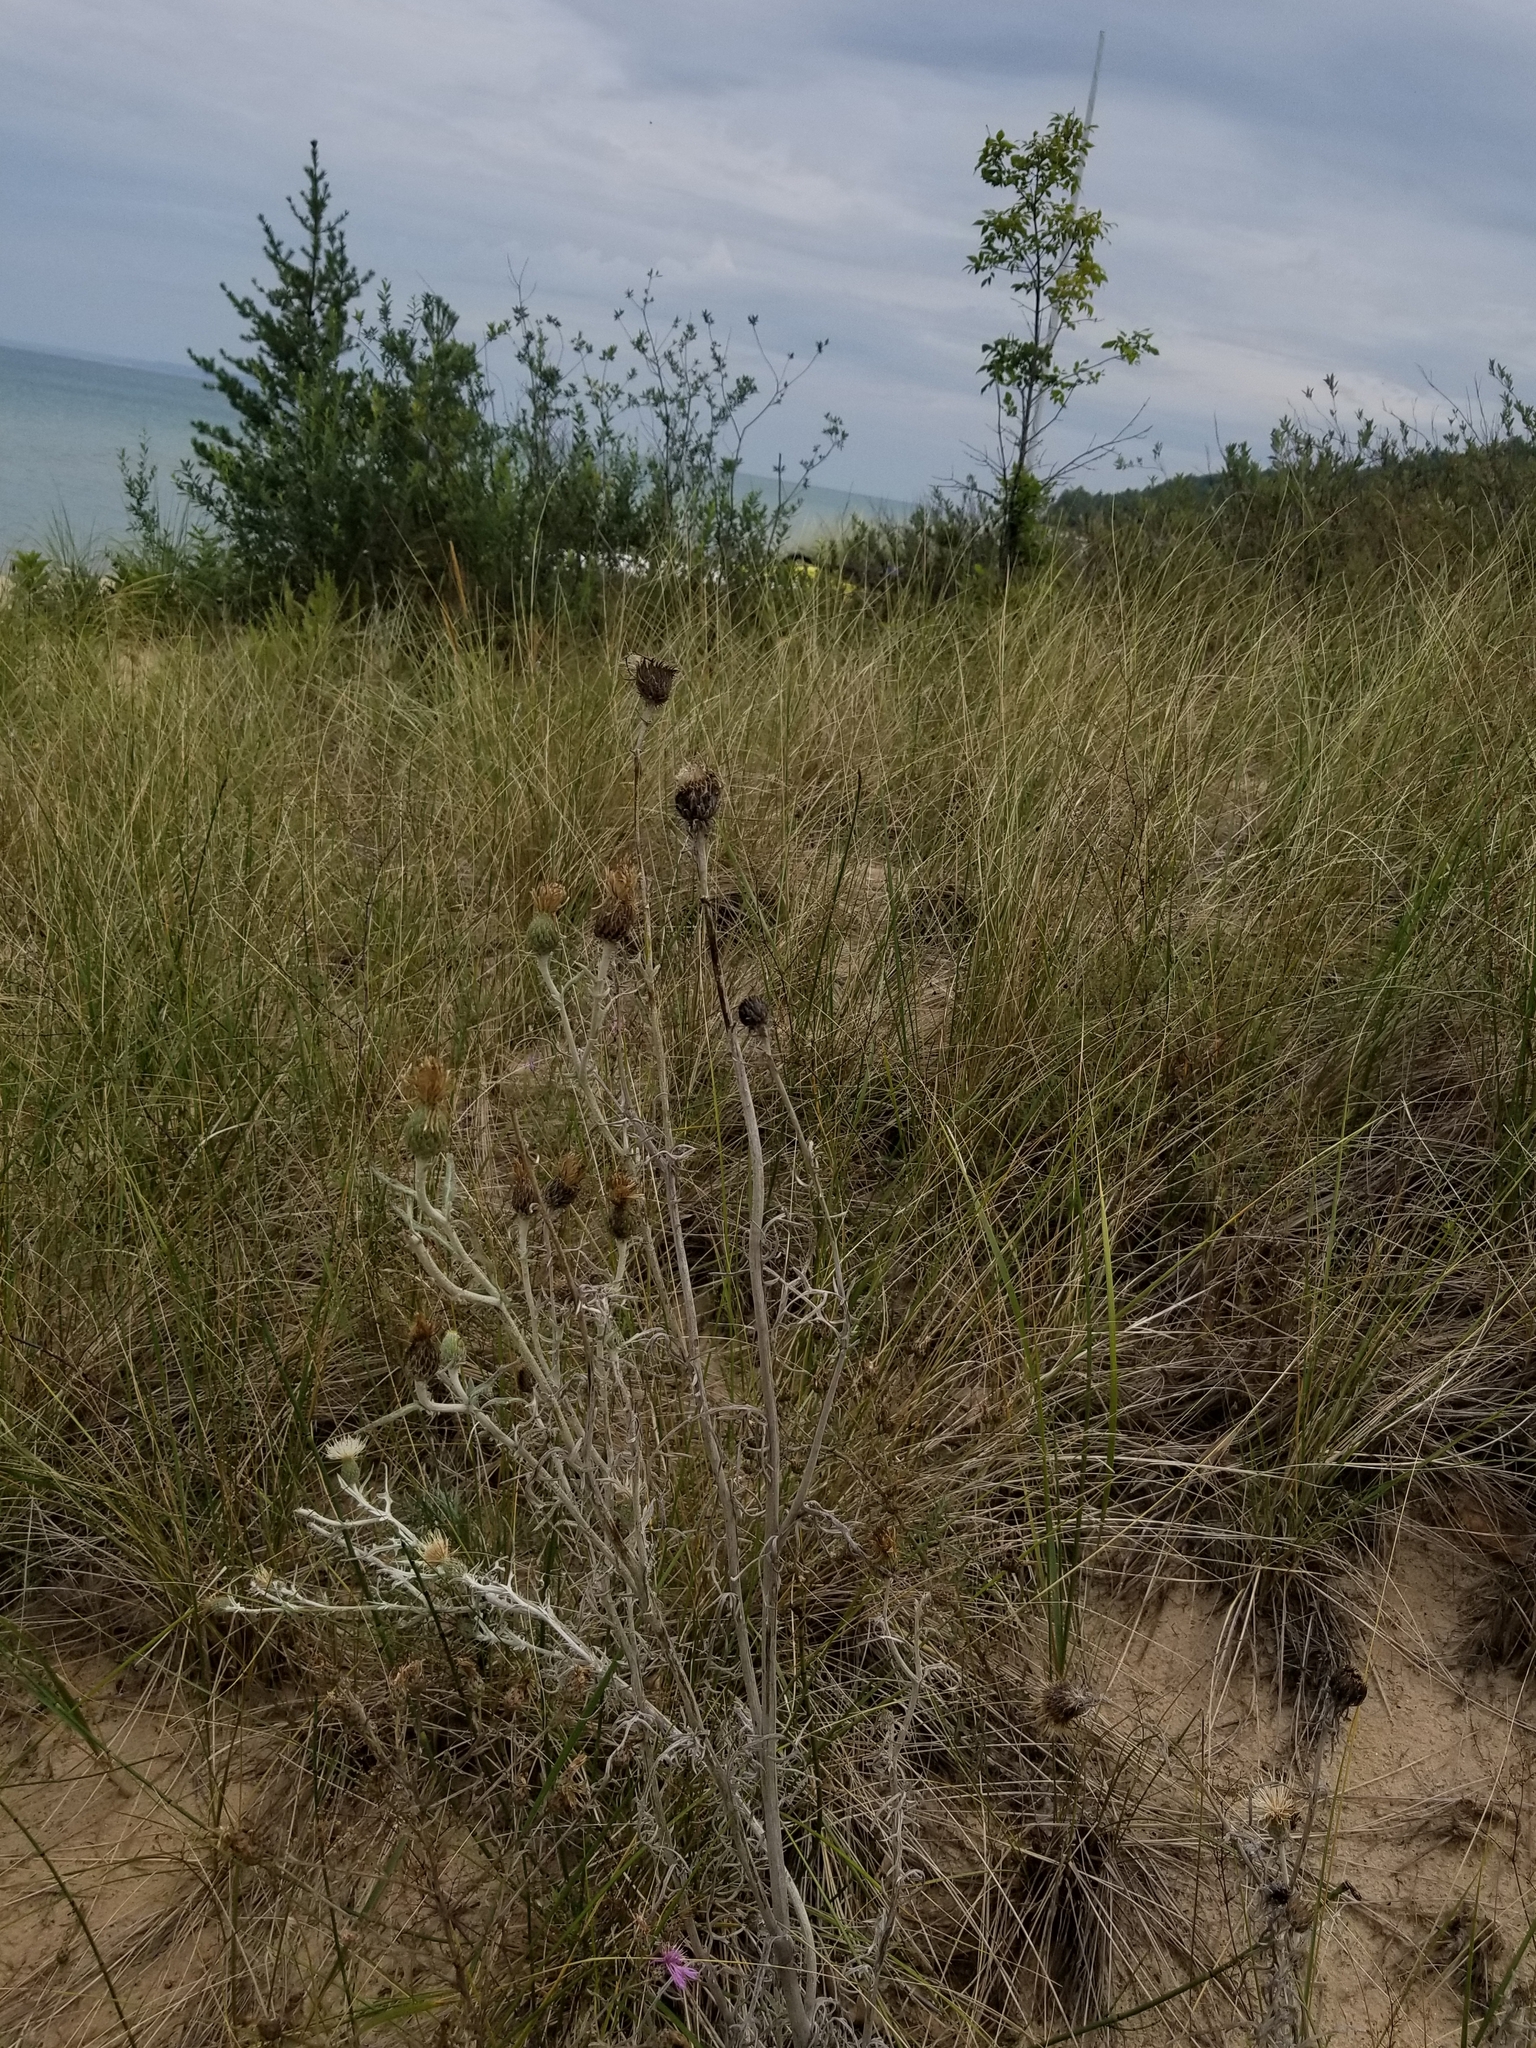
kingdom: Plantae
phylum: Tracheophyta
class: Magnoliopsida
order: Asterales
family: Asteraceae
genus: Cirsium
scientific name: Cirsium pitcheri
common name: Dune thistle
